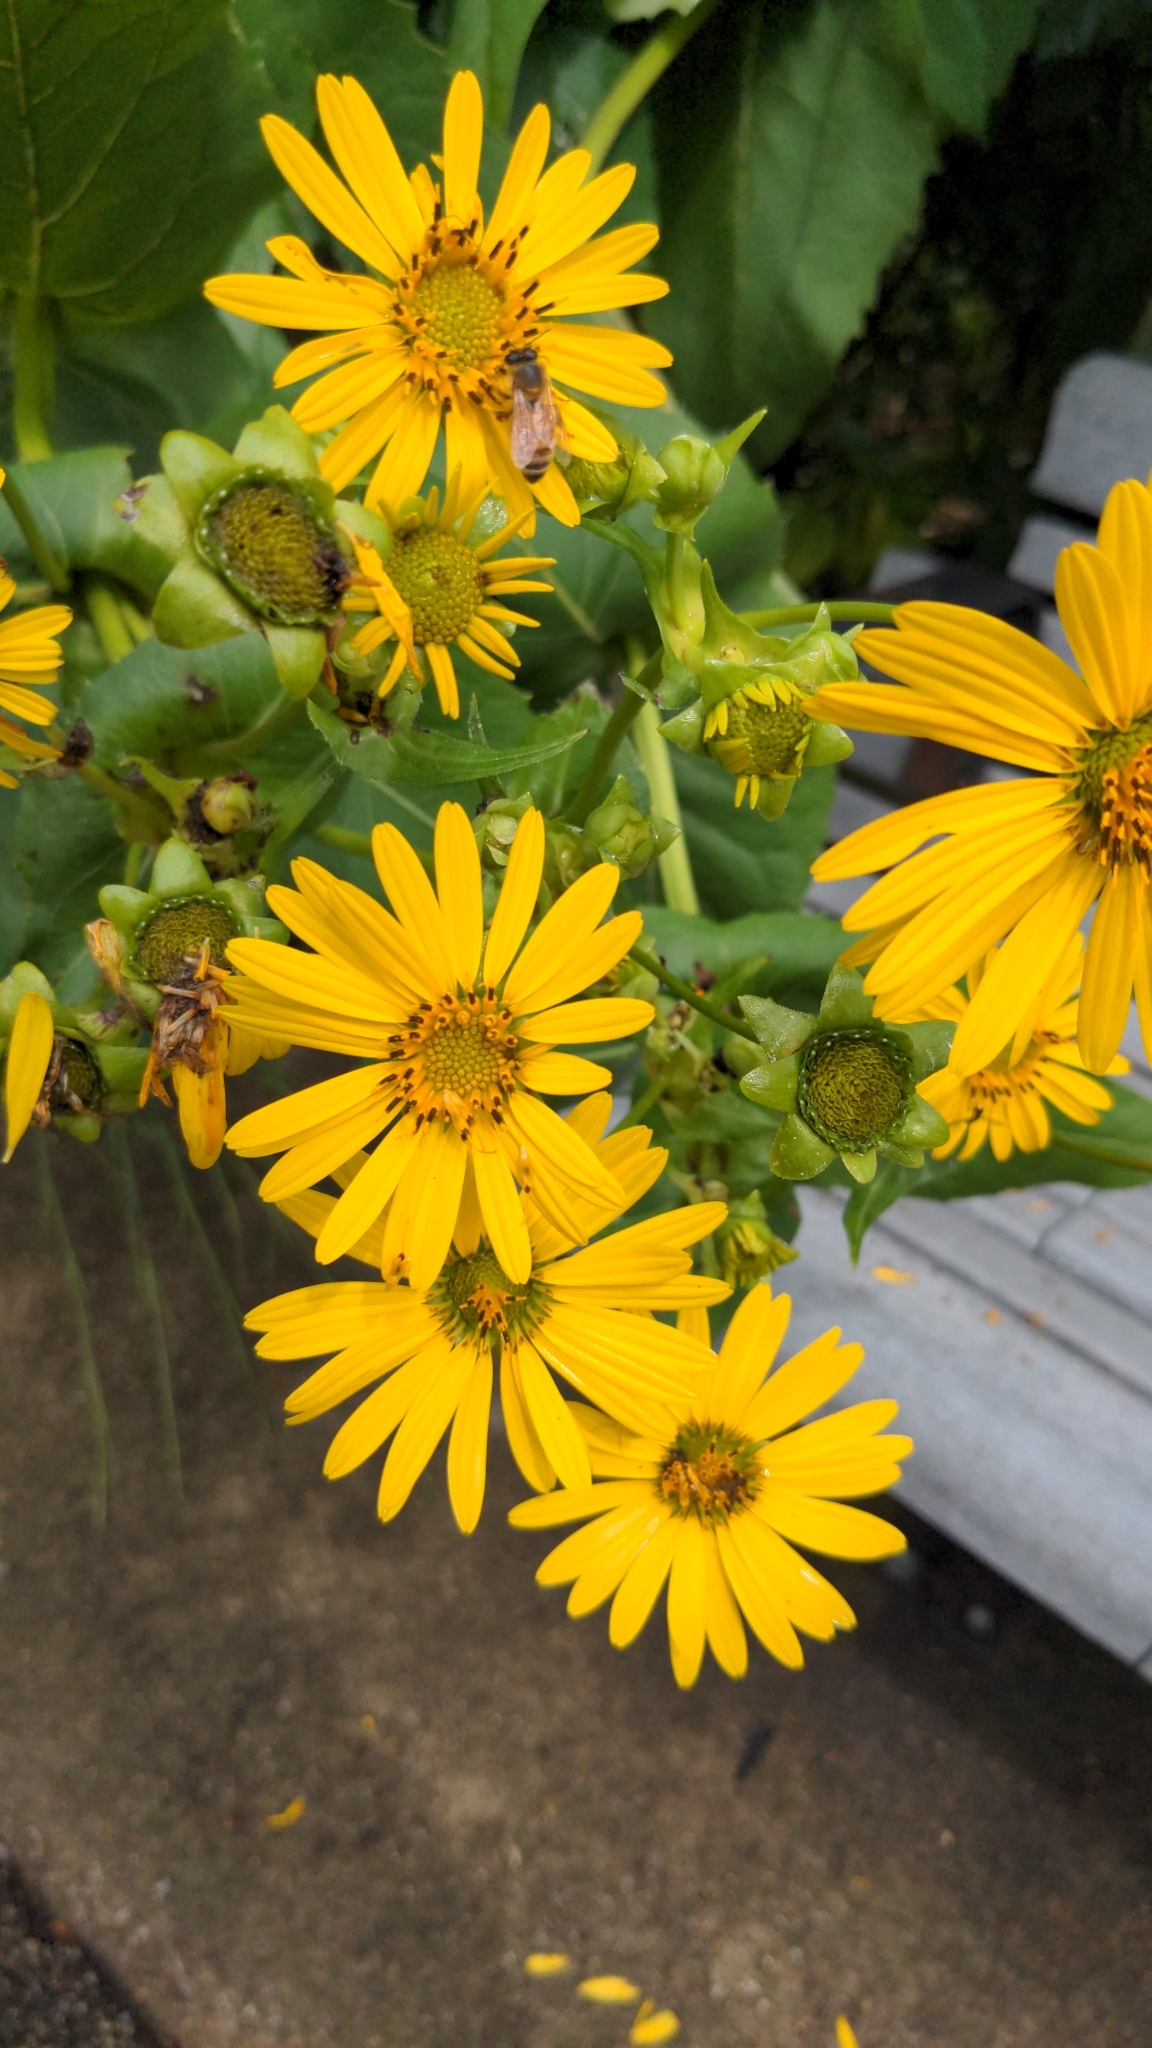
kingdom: Plantae
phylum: Tracheophyta
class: Magnoliopsida
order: Asterales
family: Asteraceae
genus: Silphium
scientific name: Silphium perfoliatum
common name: Cup-plant
